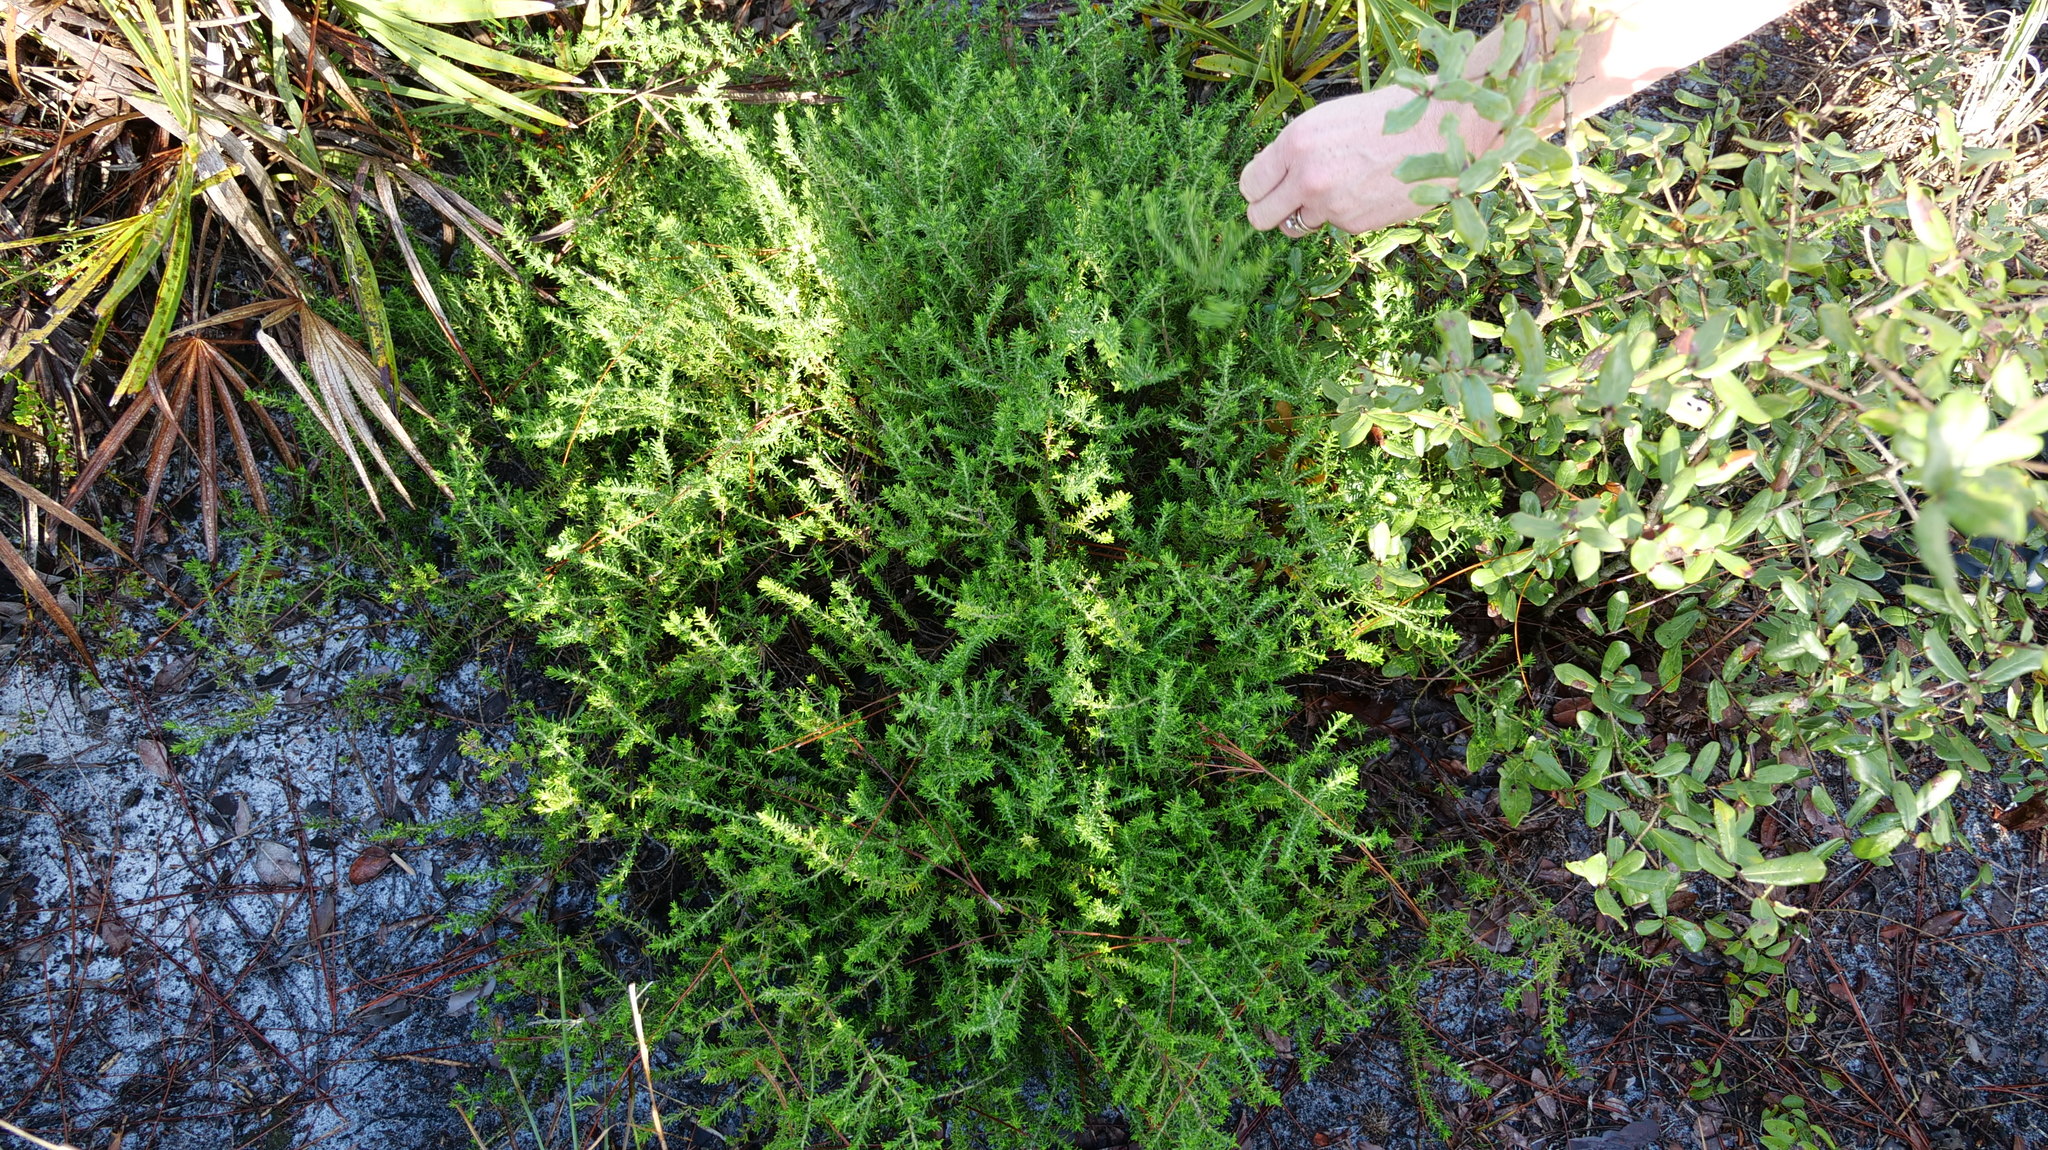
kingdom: Plantae
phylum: Tracheophyta
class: Magnoliopsida
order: Lamiales
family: Lamiaceae
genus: Piloblephis
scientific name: Piloblephis rigida
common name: Wild pennyroyal
